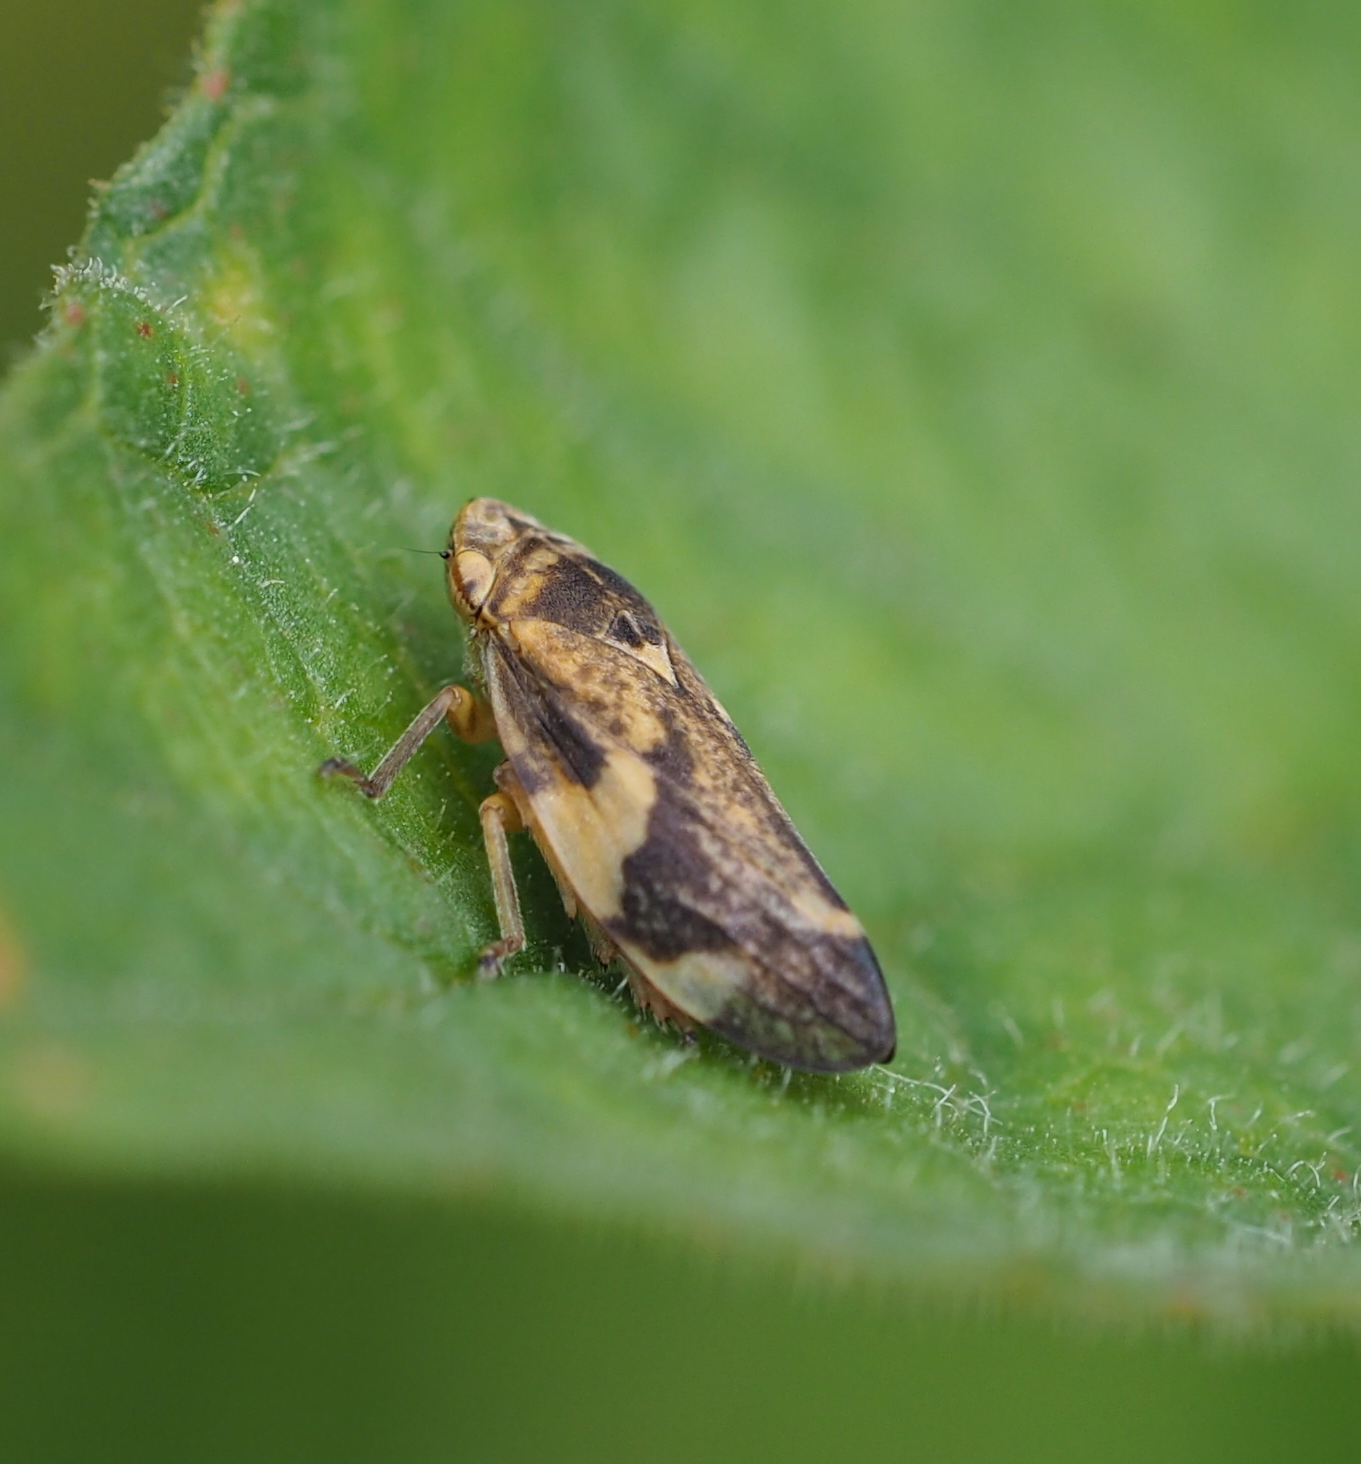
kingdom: Animalia
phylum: Arthropoda
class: Insecta
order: Hemiptera
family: Aphrophoridae
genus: Philaenus
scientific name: Philaenus spumarius
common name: Meadow spittlebug
